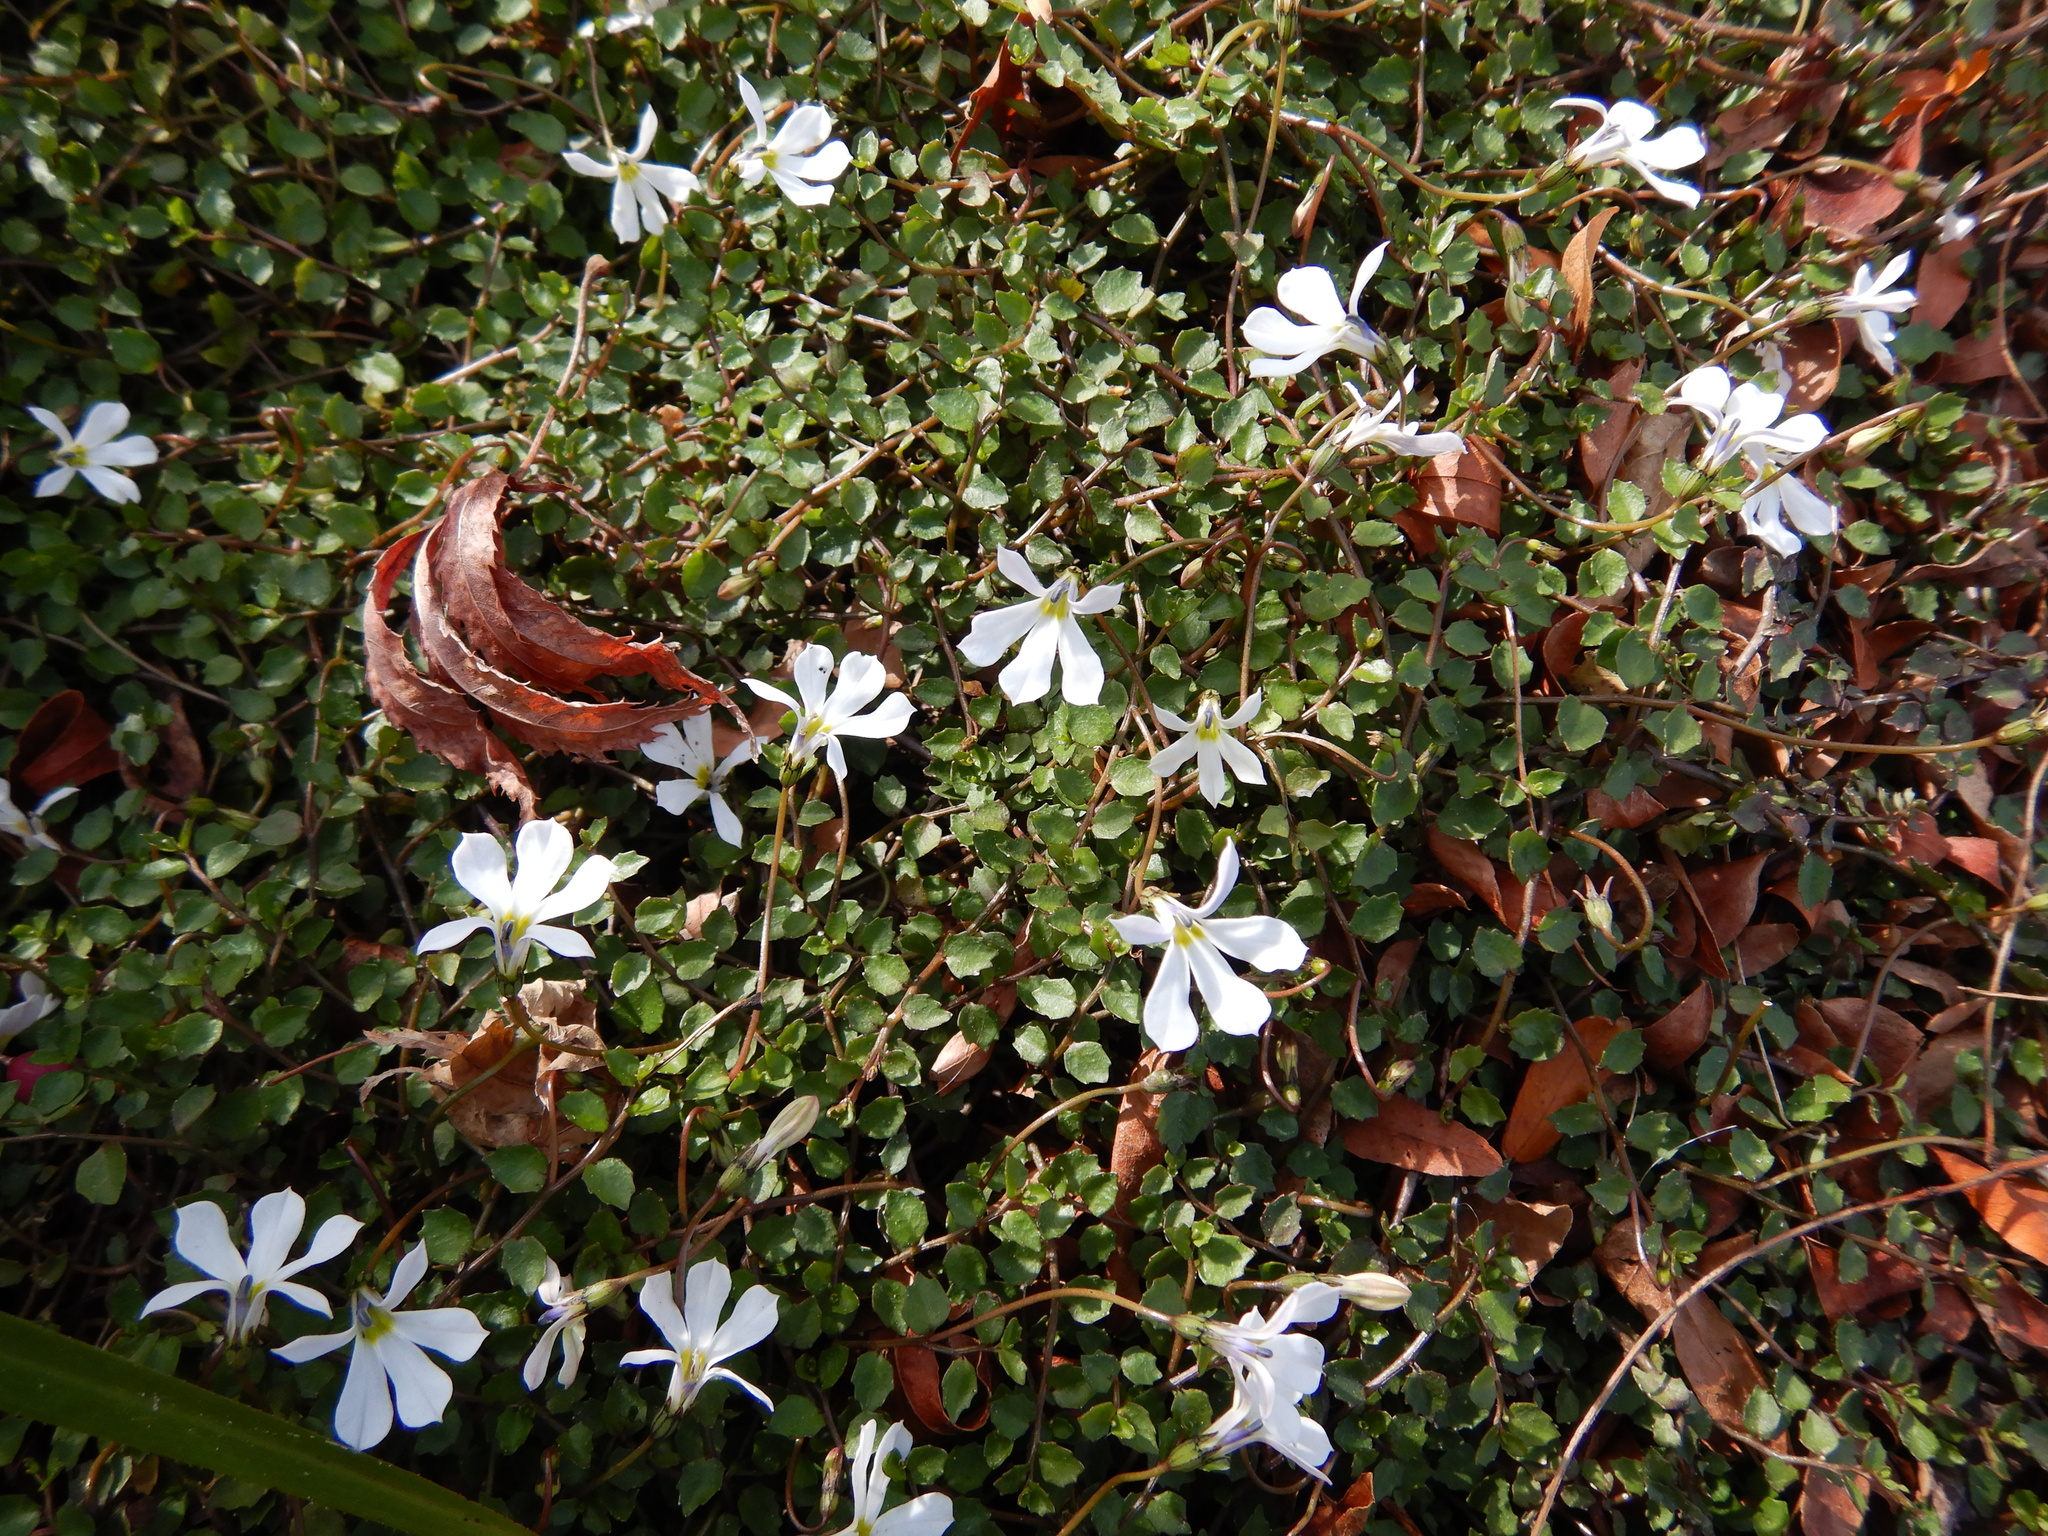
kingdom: Plantae
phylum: Tracheophyta
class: Magnoliopsida
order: Asterales
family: Campanulaceae
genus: Lobelia
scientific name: Lobelia angulata
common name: Lawn lobelia
